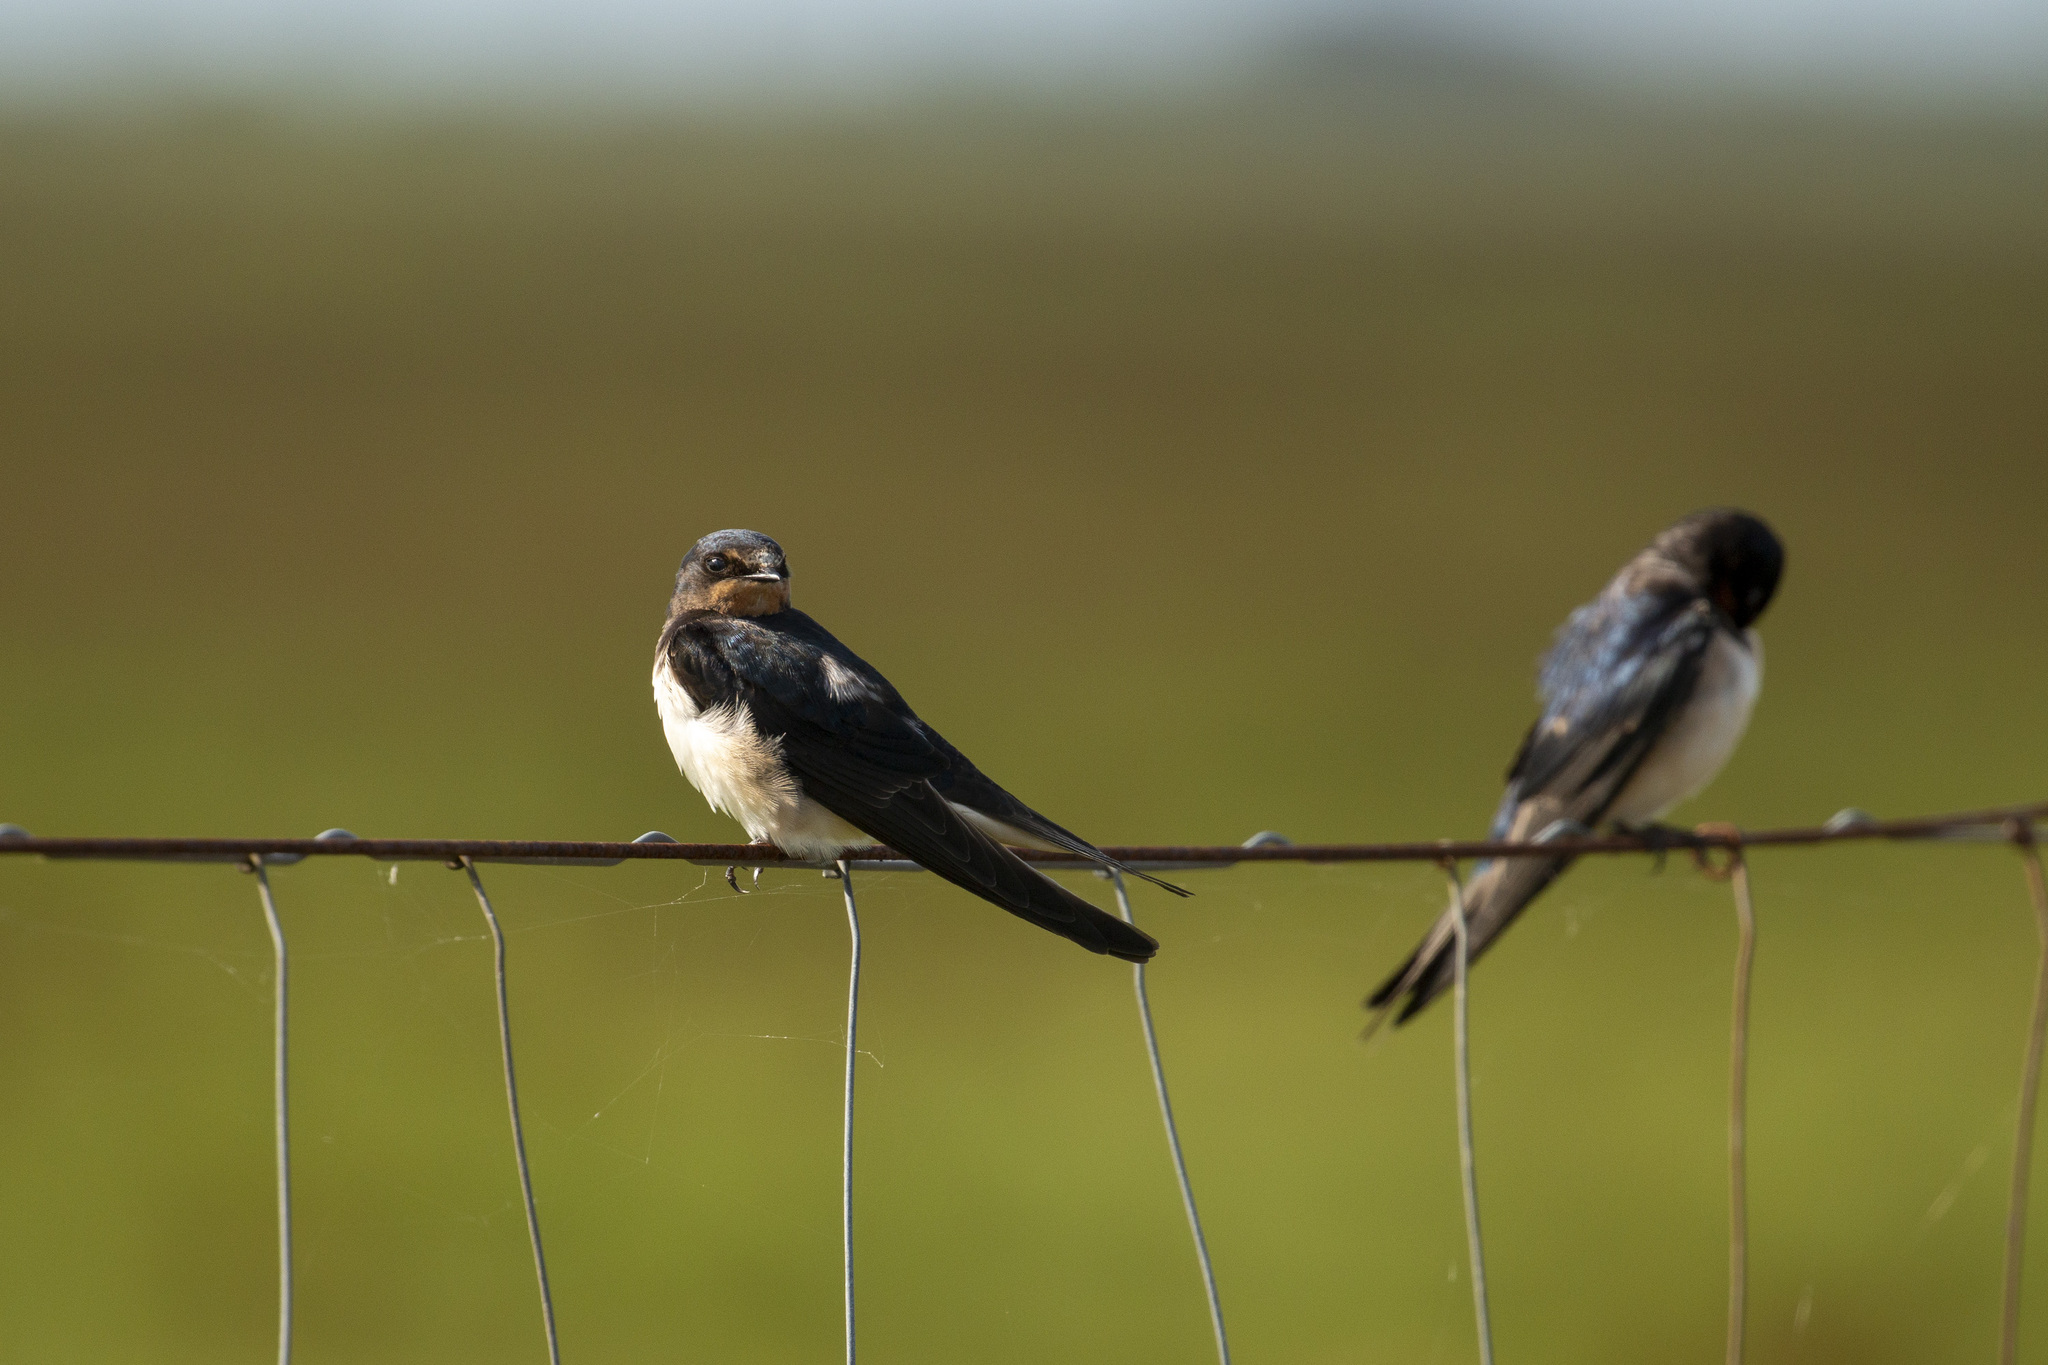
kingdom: Animalia
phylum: Chordata
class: Aves
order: Passeriformes
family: Hirundinidae
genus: Hirundo
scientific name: Hirundo rustica
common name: Barn swallow
